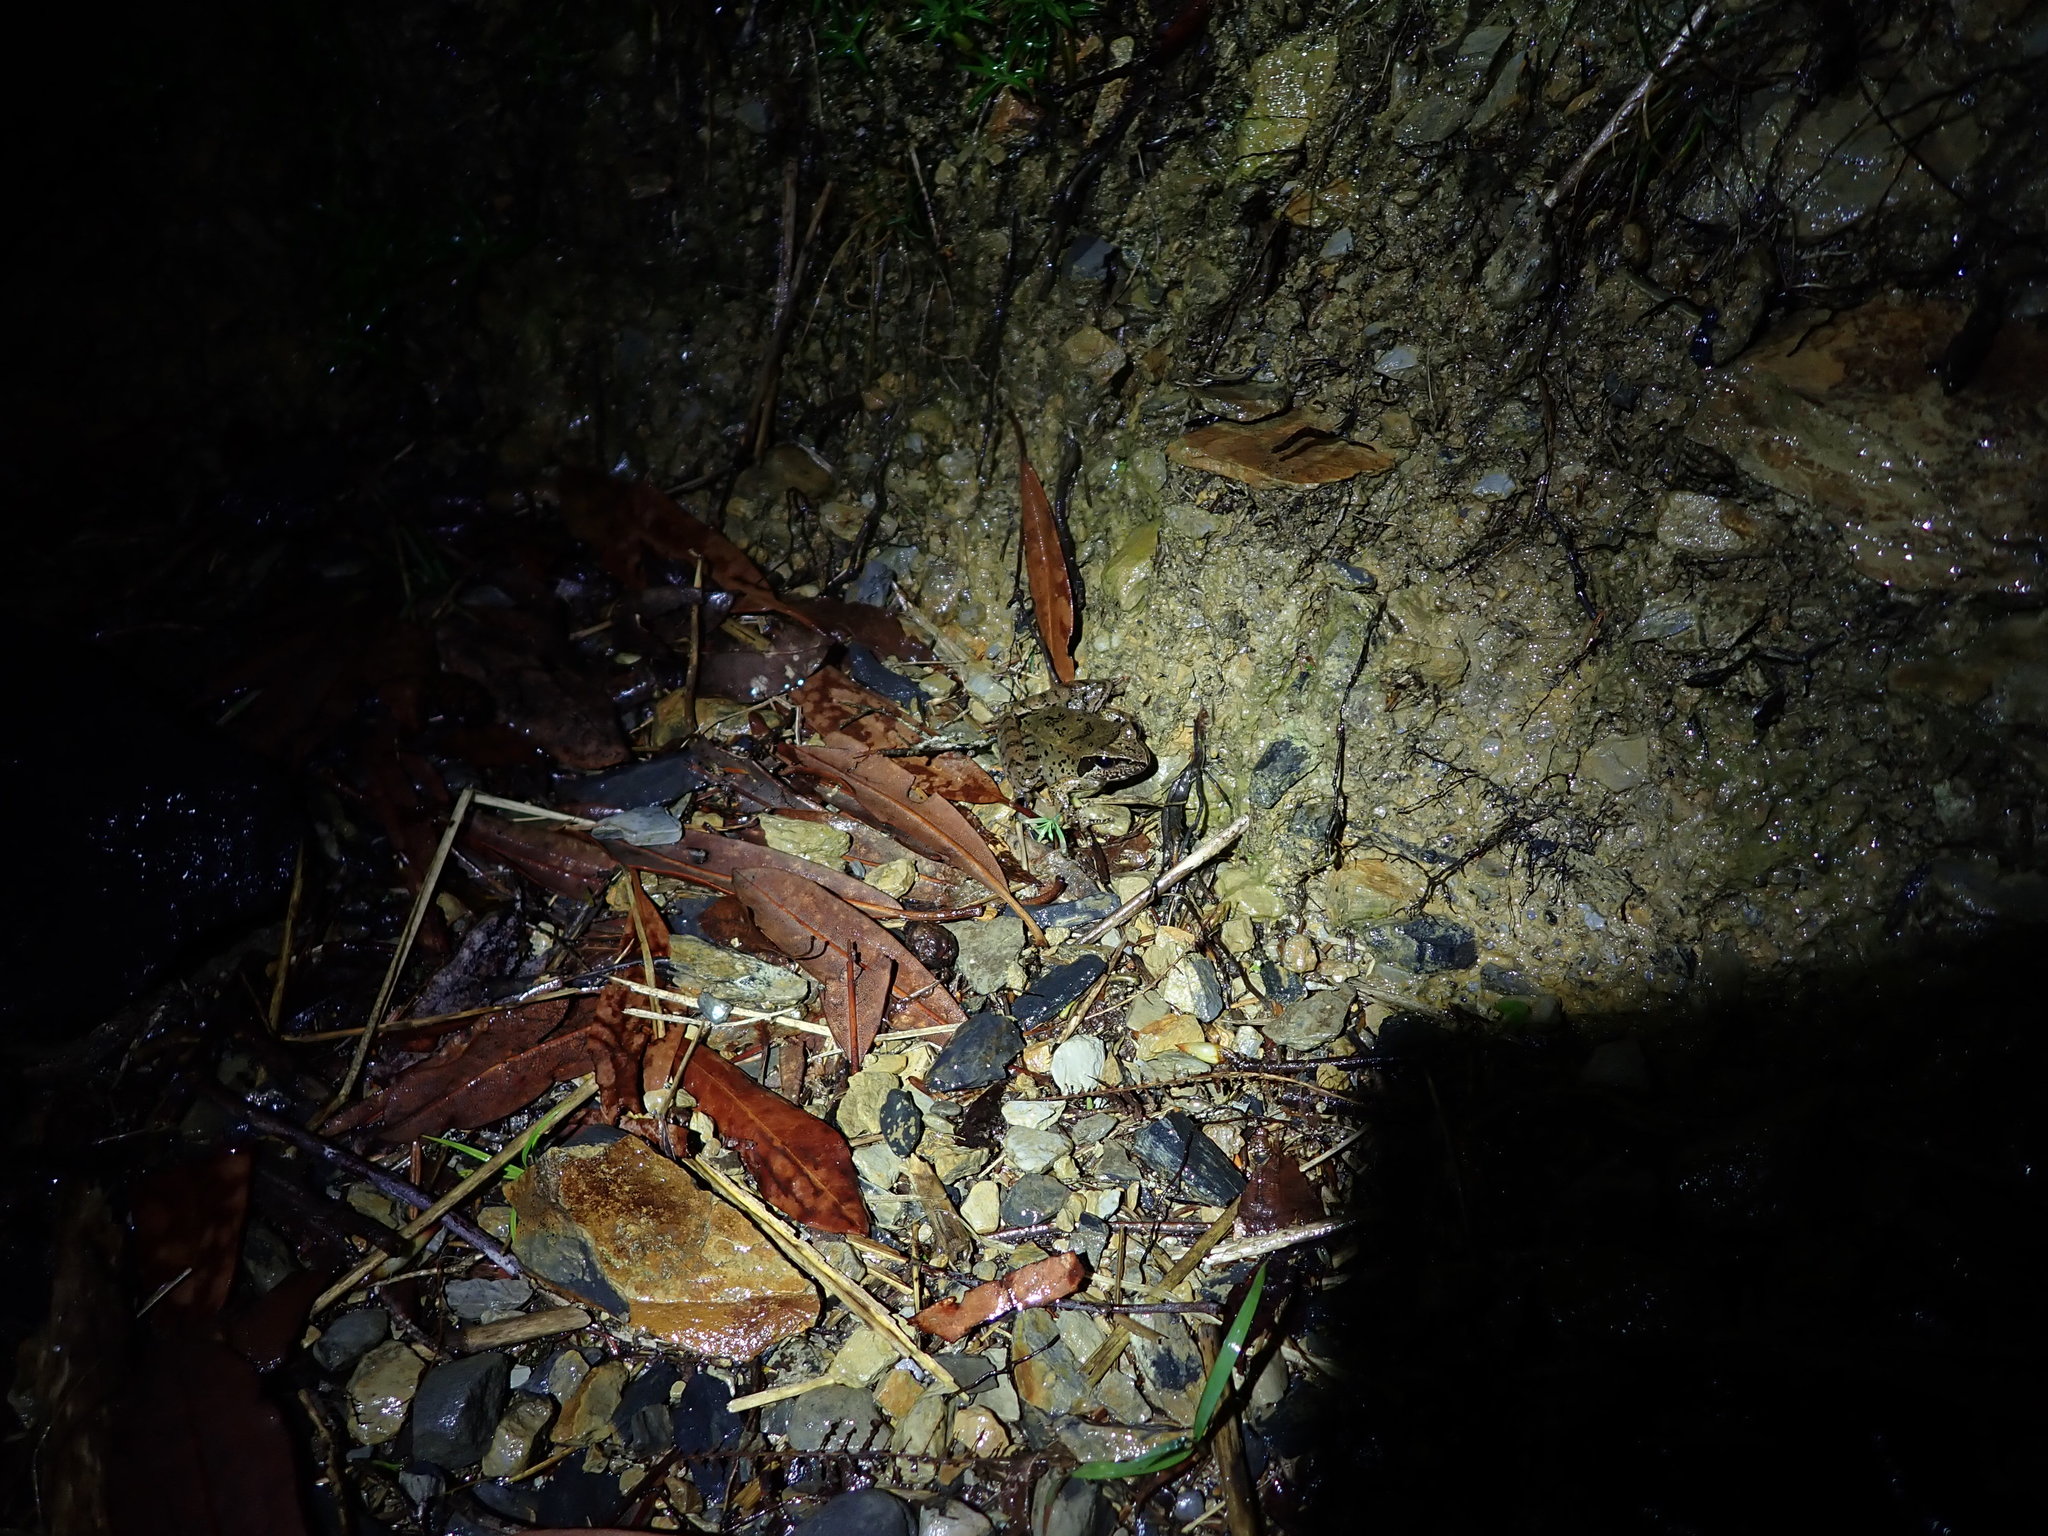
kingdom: Animalia
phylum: Chordata
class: Amphibia
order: Anura
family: Ranidae
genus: Rana
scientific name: Rana sauteri
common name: Kanshirei village frog
